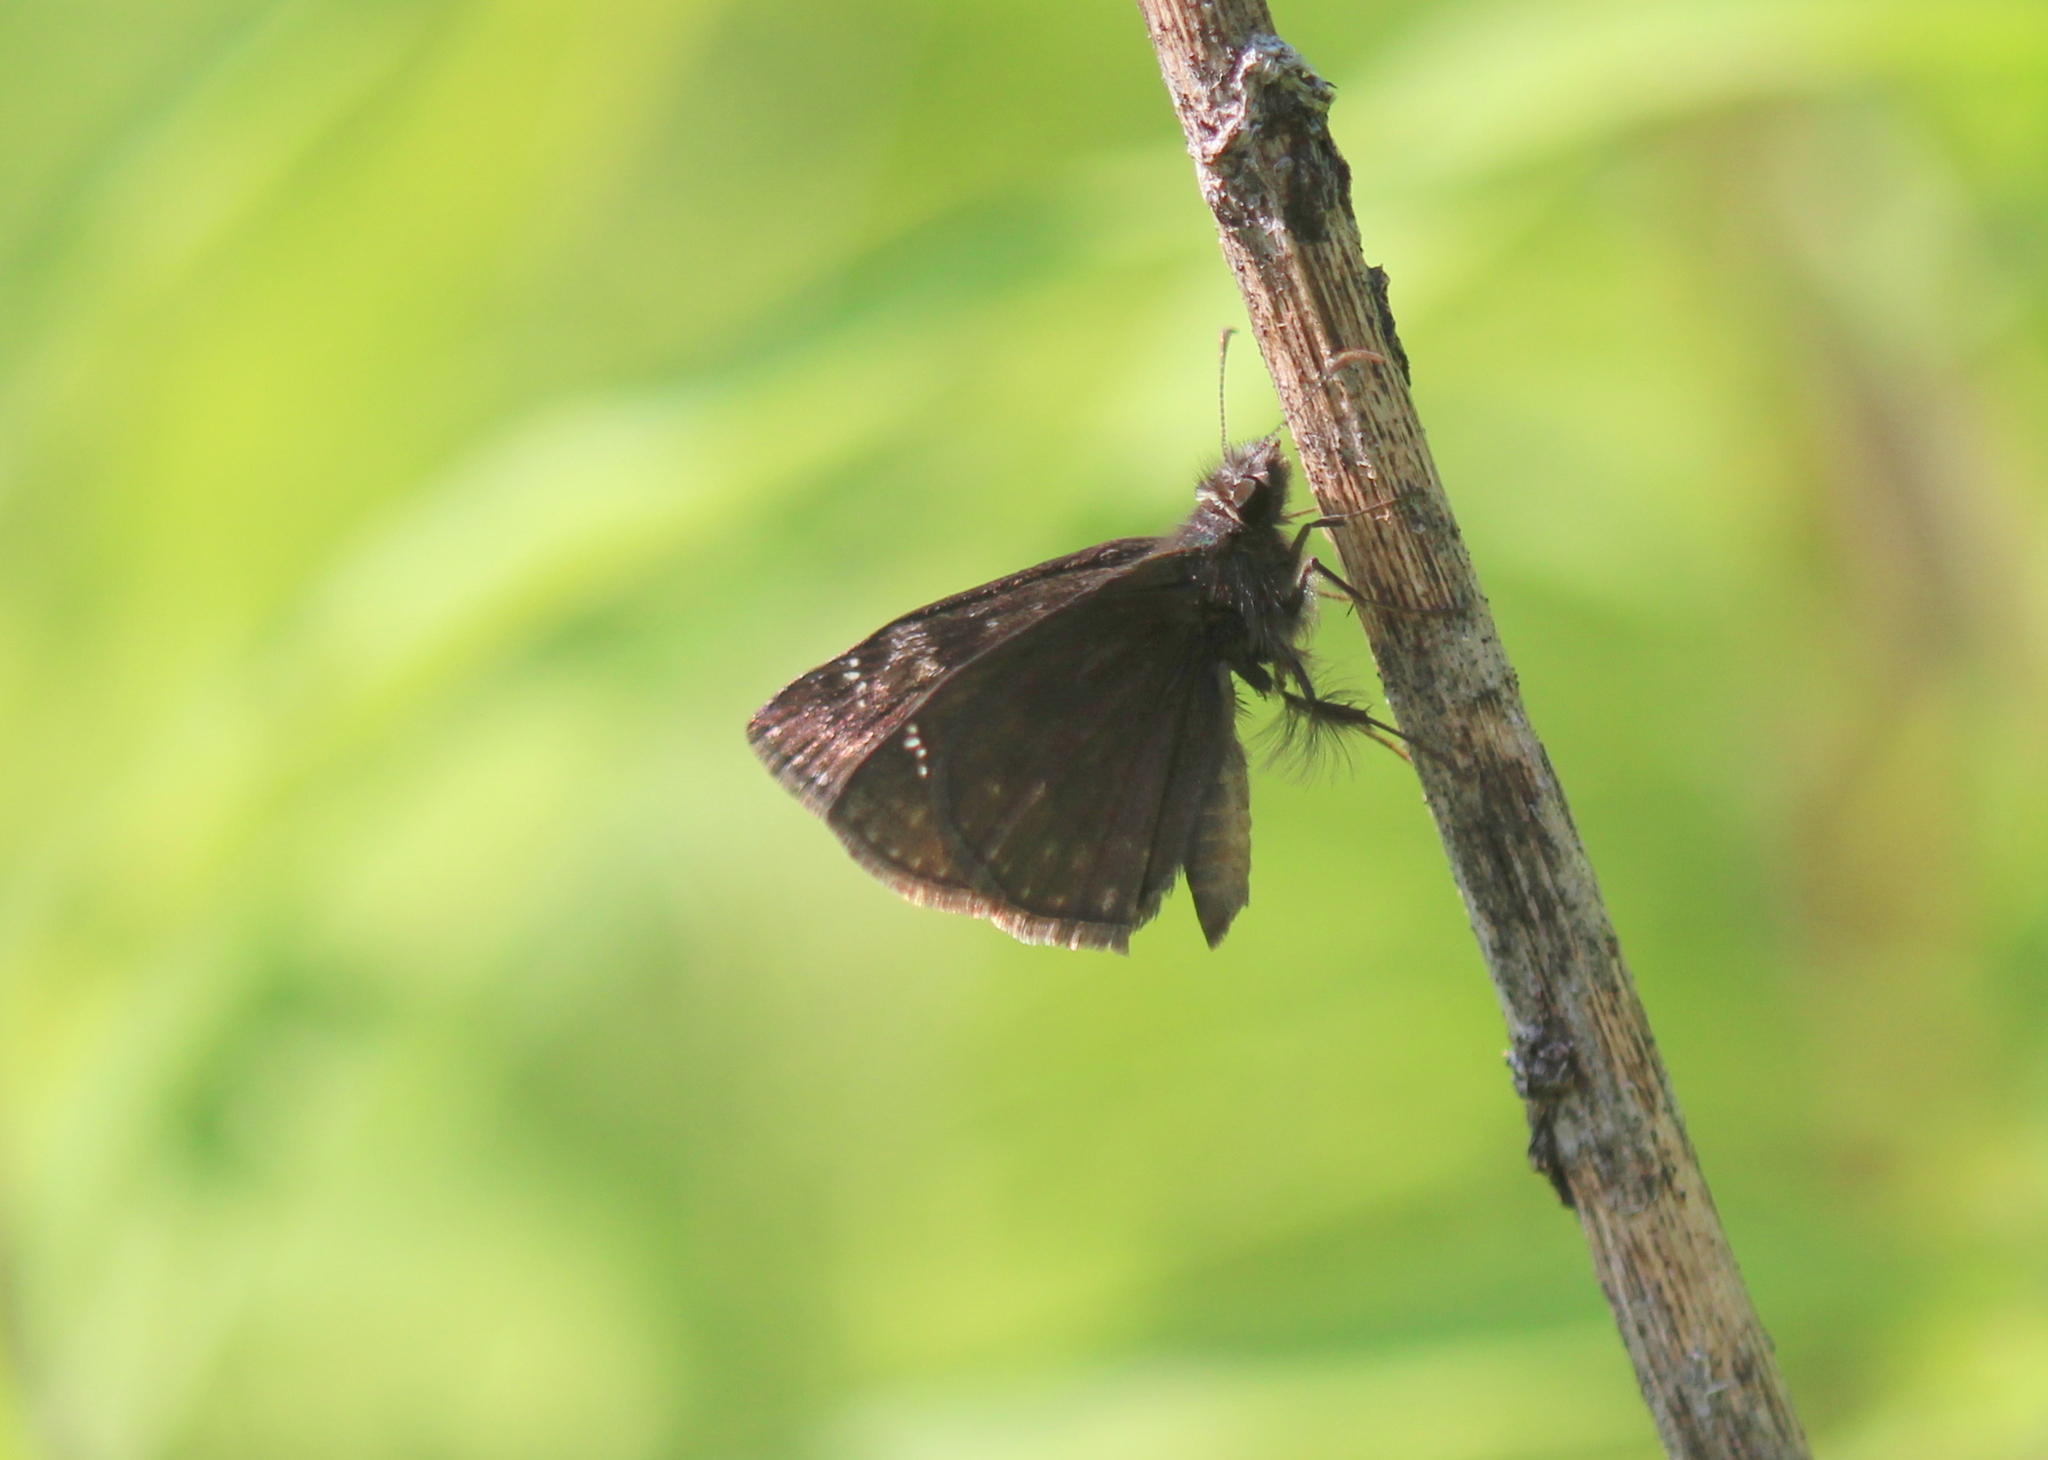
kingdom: Animalia
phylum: Arthropoda
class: Insecta
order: Lepidoptera
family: Hesperiidae
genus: Erynnis
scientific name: Erynnis baptisiae
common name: Wild indigo duskywing
